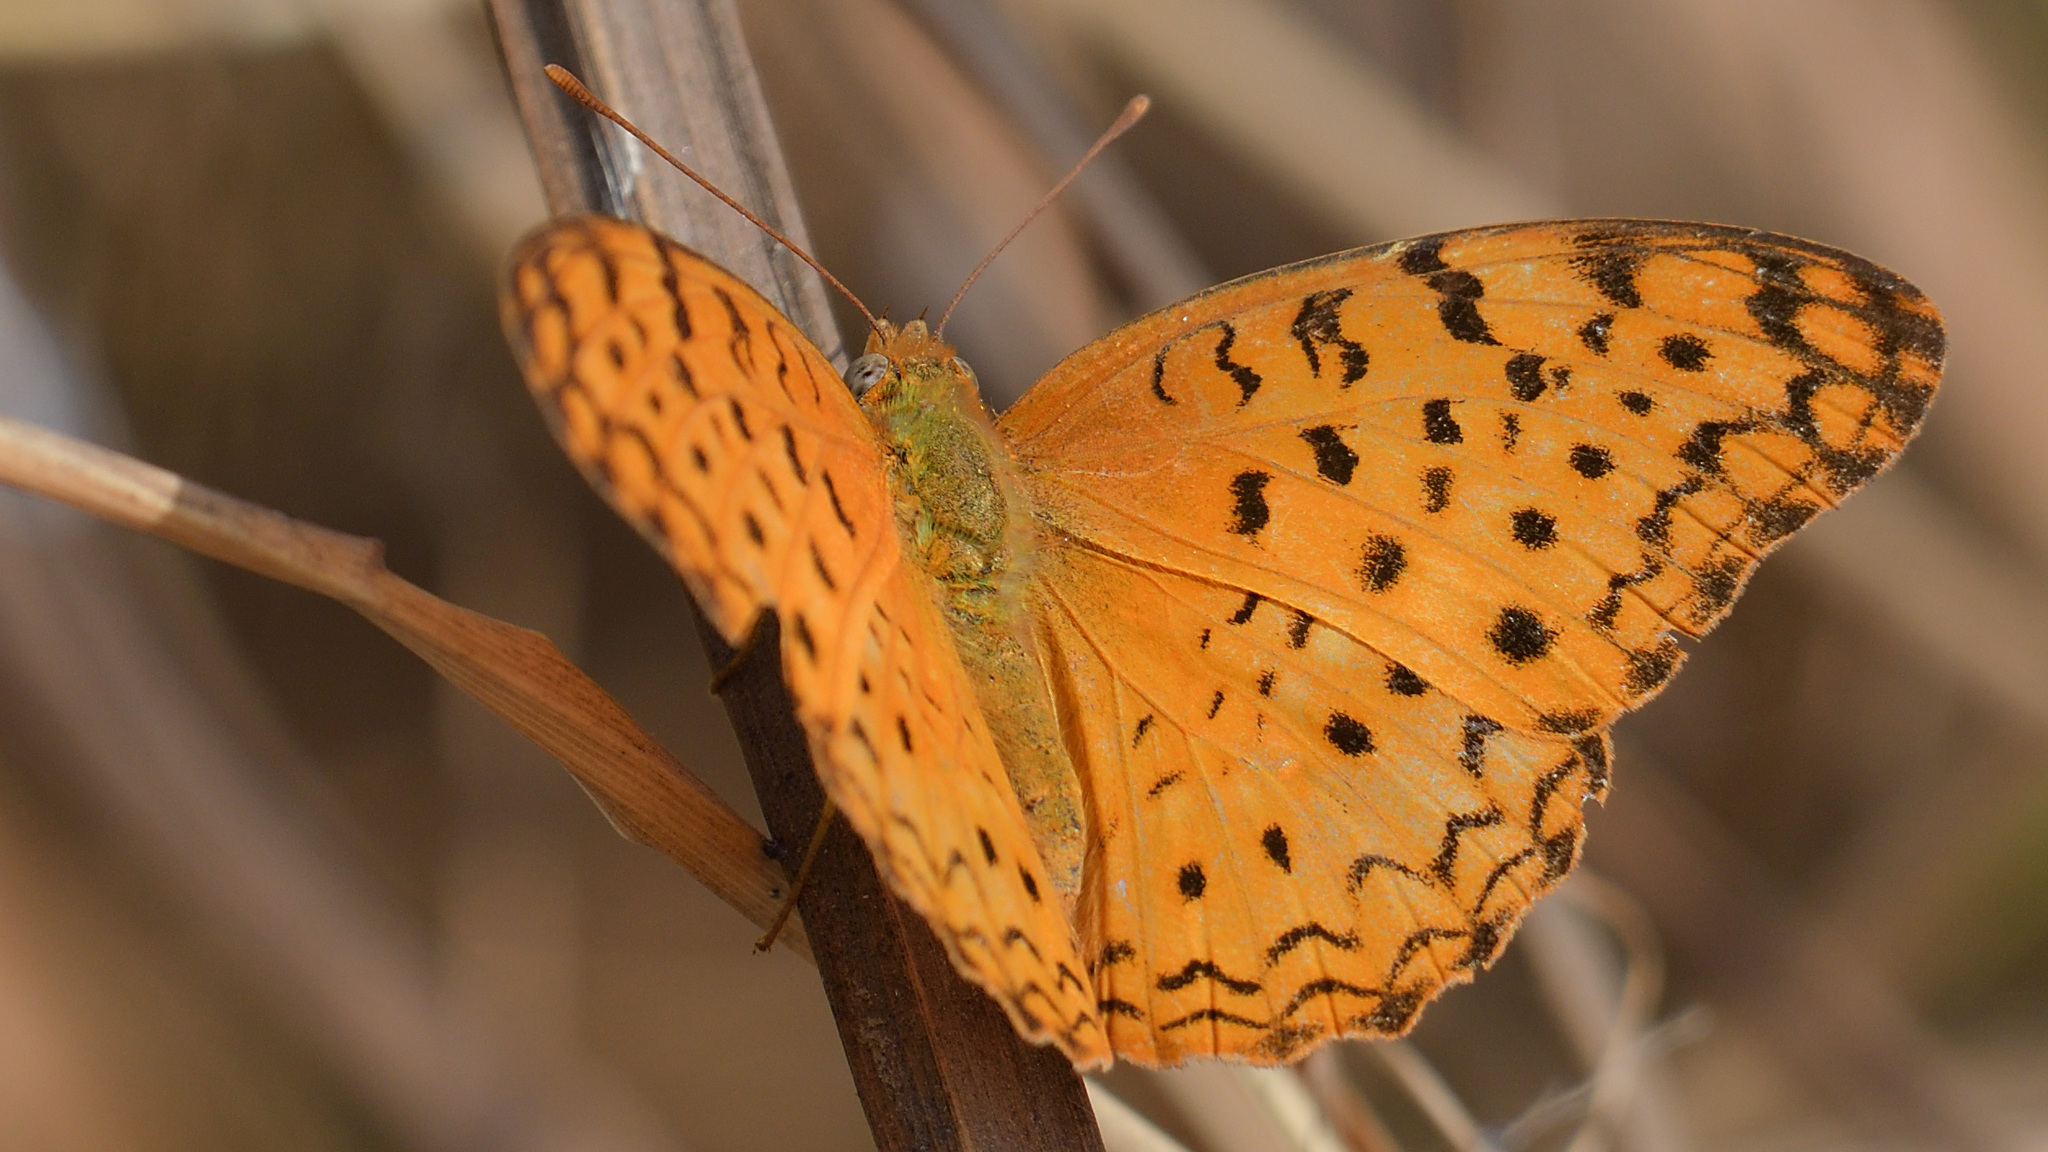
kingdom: Animalia
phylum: Arthropoda
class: Insecta
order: Lepidoptera
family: Nymphalidae
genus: Phalanta
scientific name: Phalanta phalantha
